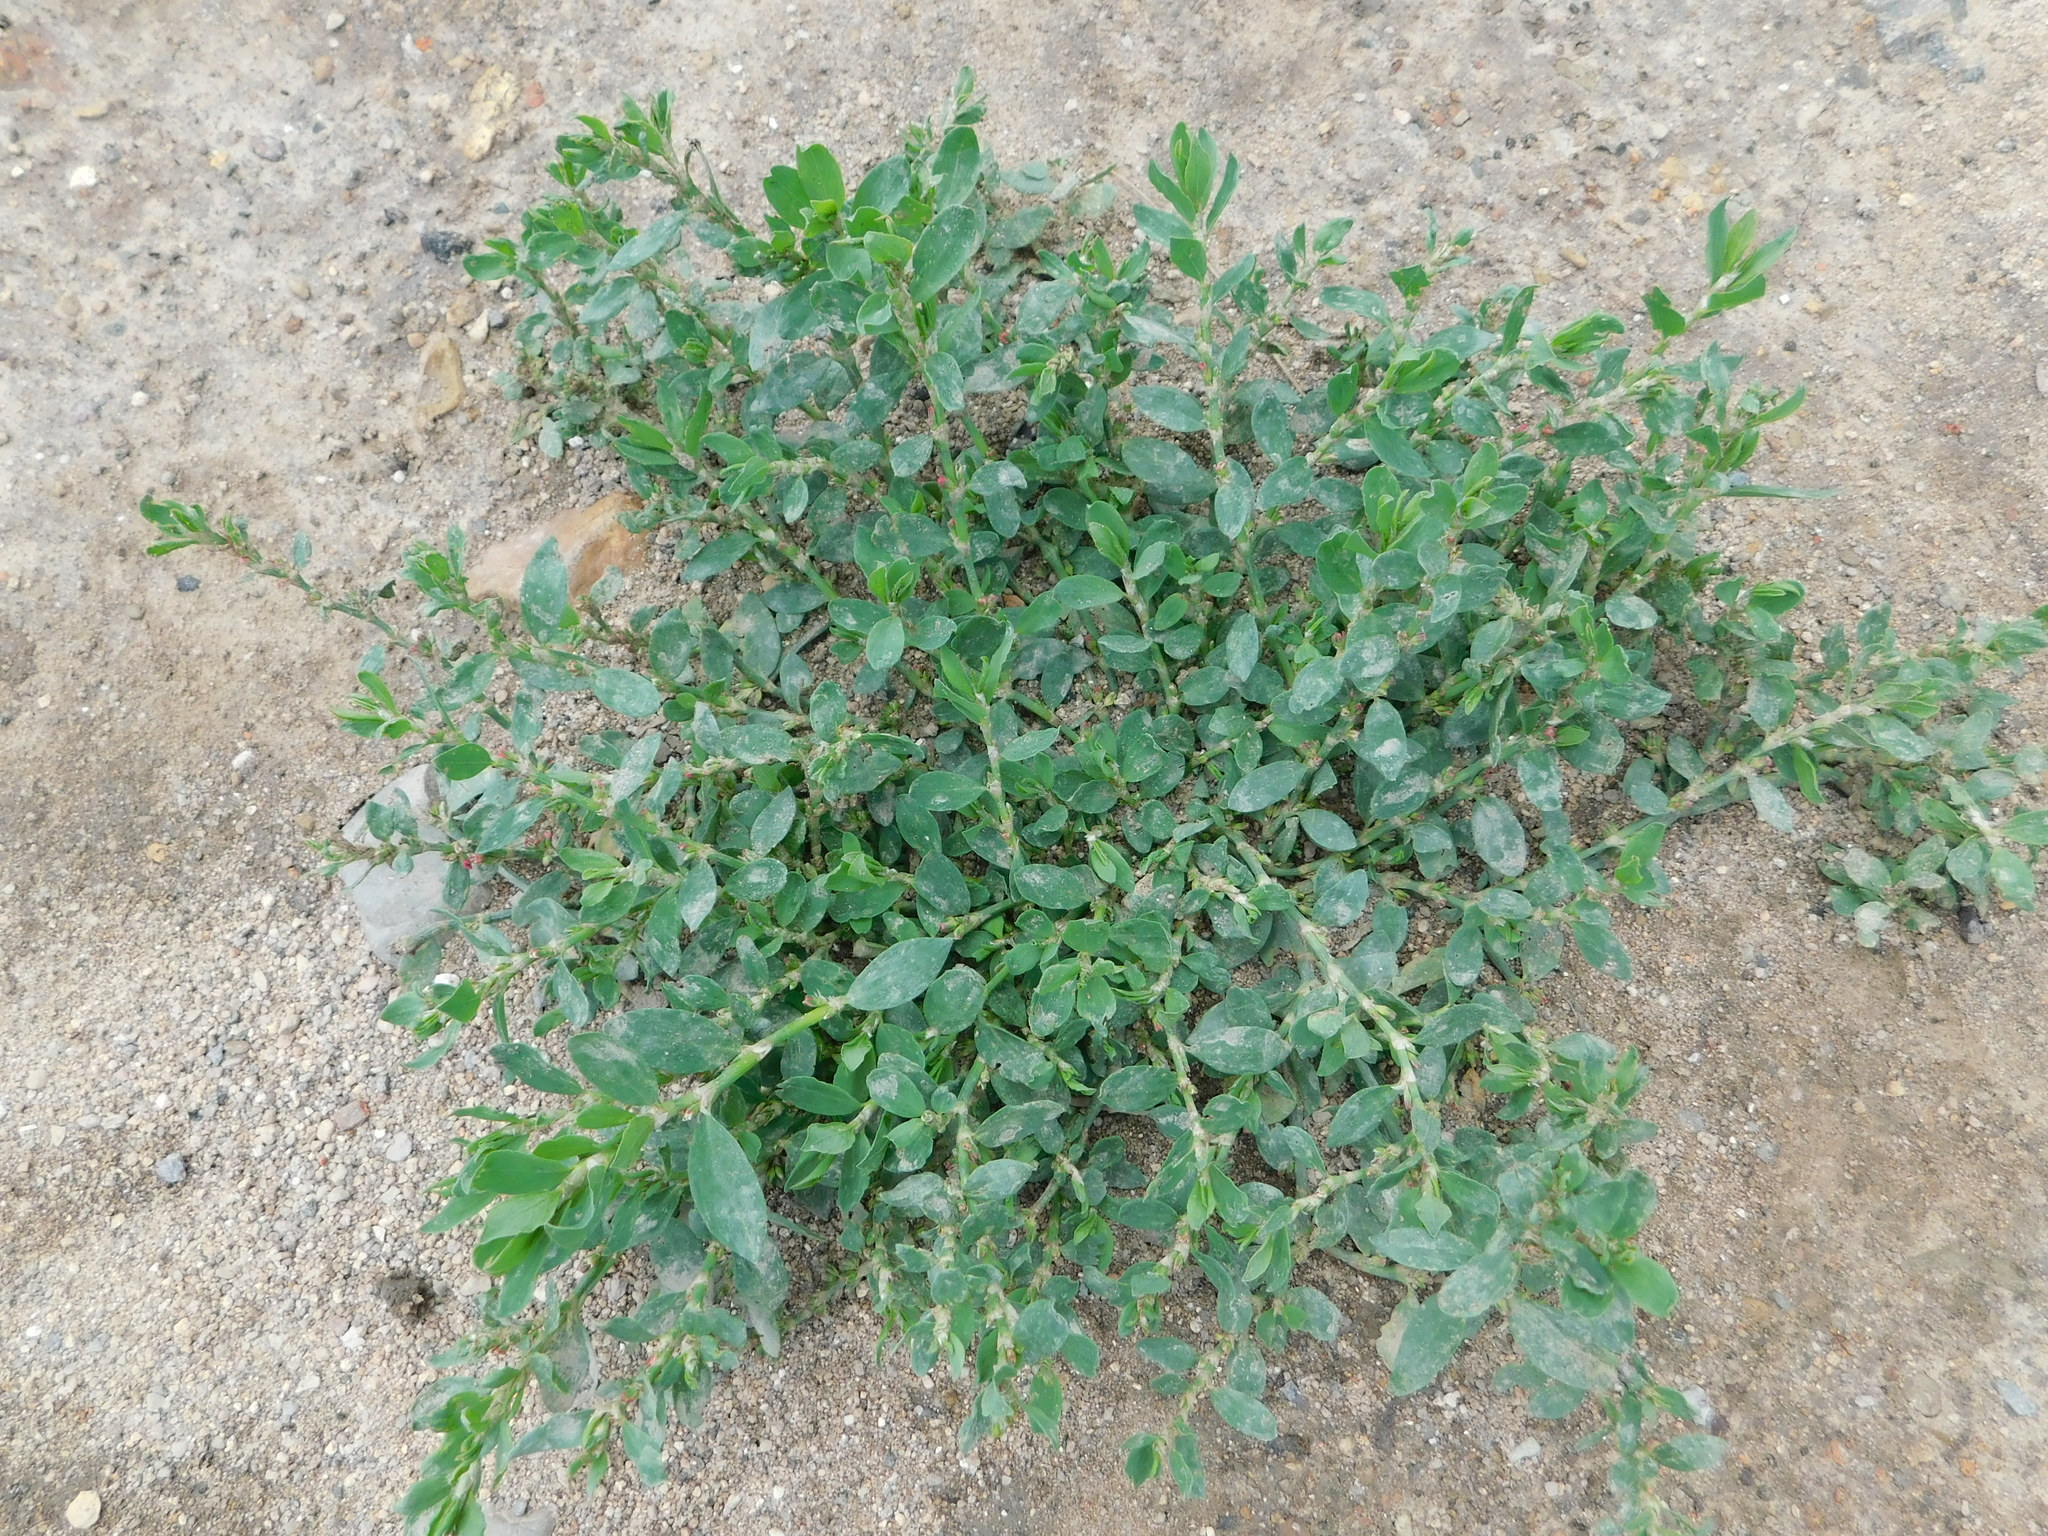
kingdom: Plantae
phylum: Tracheophyta
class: Magnoliopsida
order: Caryophyllales
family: Polygonaceae
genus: Polygonum
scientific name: Polygonum aviculare
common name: Prostrate knotweed
